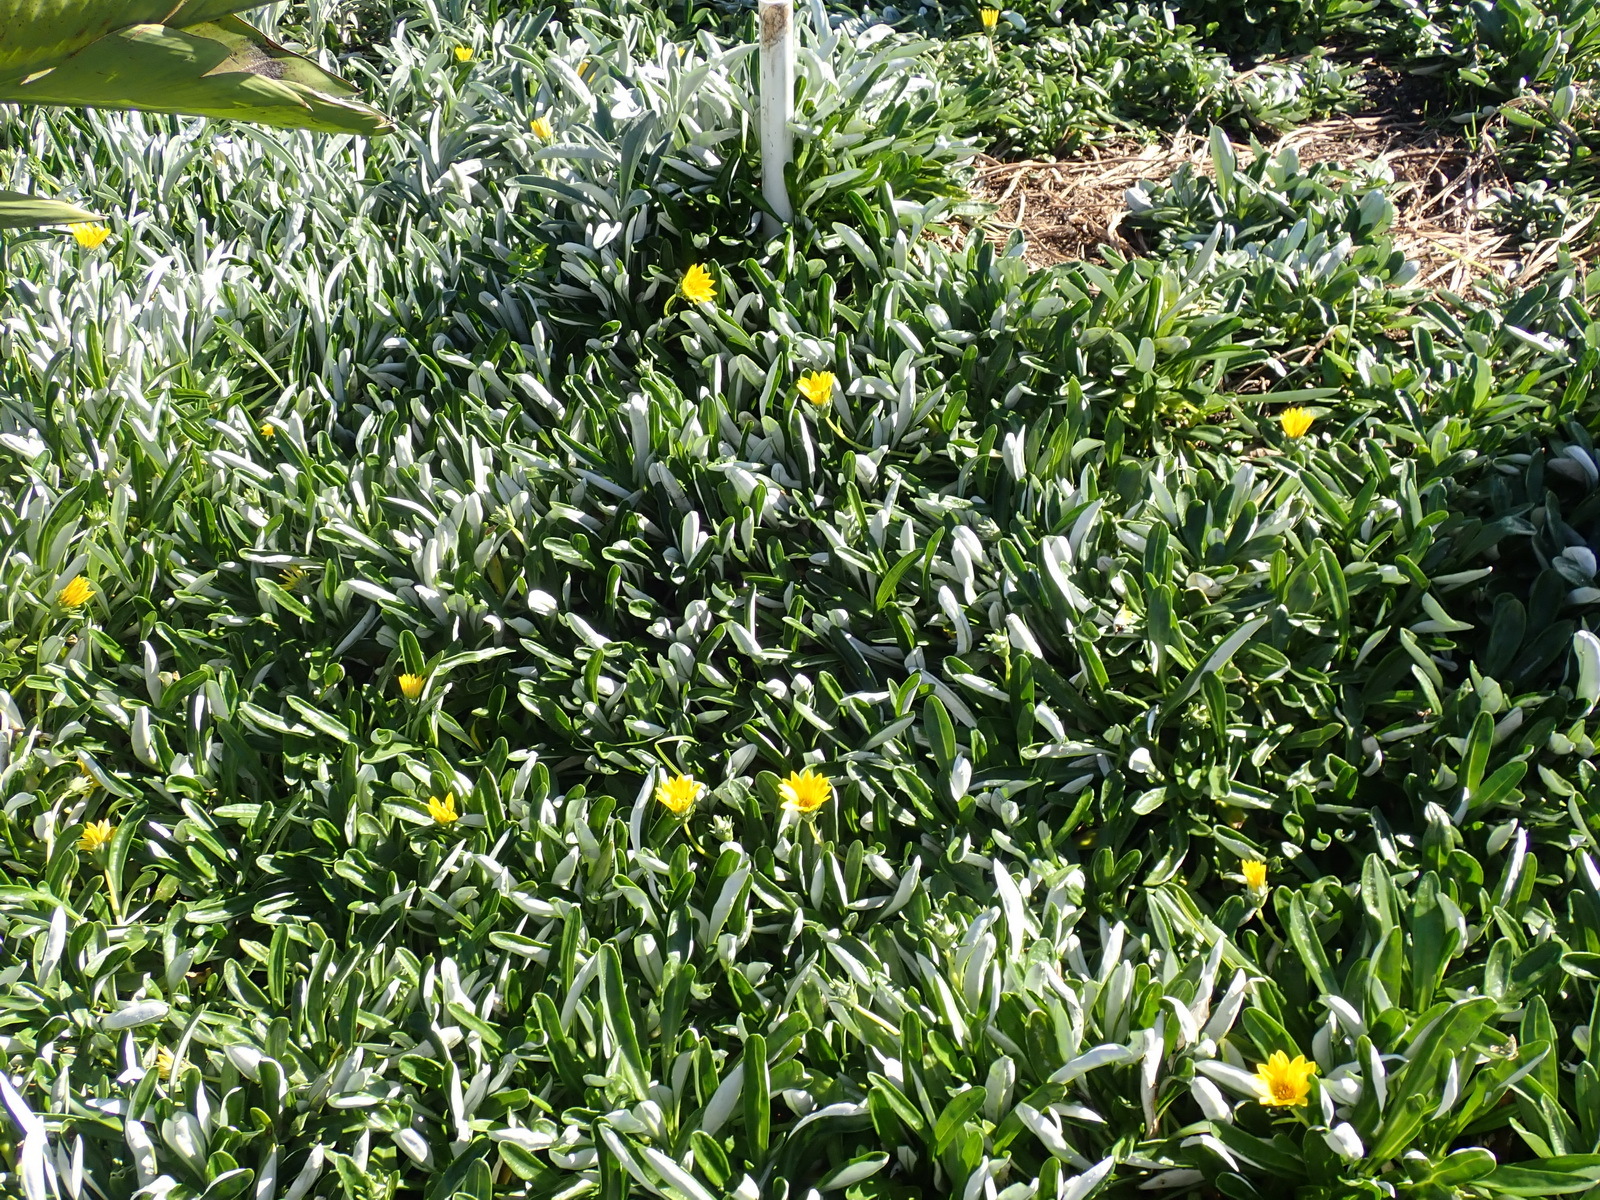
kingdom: Plantae
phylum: Tracheophyta
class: Magnoliopsida
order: Asterales
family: Asteraceae
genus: Gazania
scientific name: Gazania rigens
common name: Treasureflower
